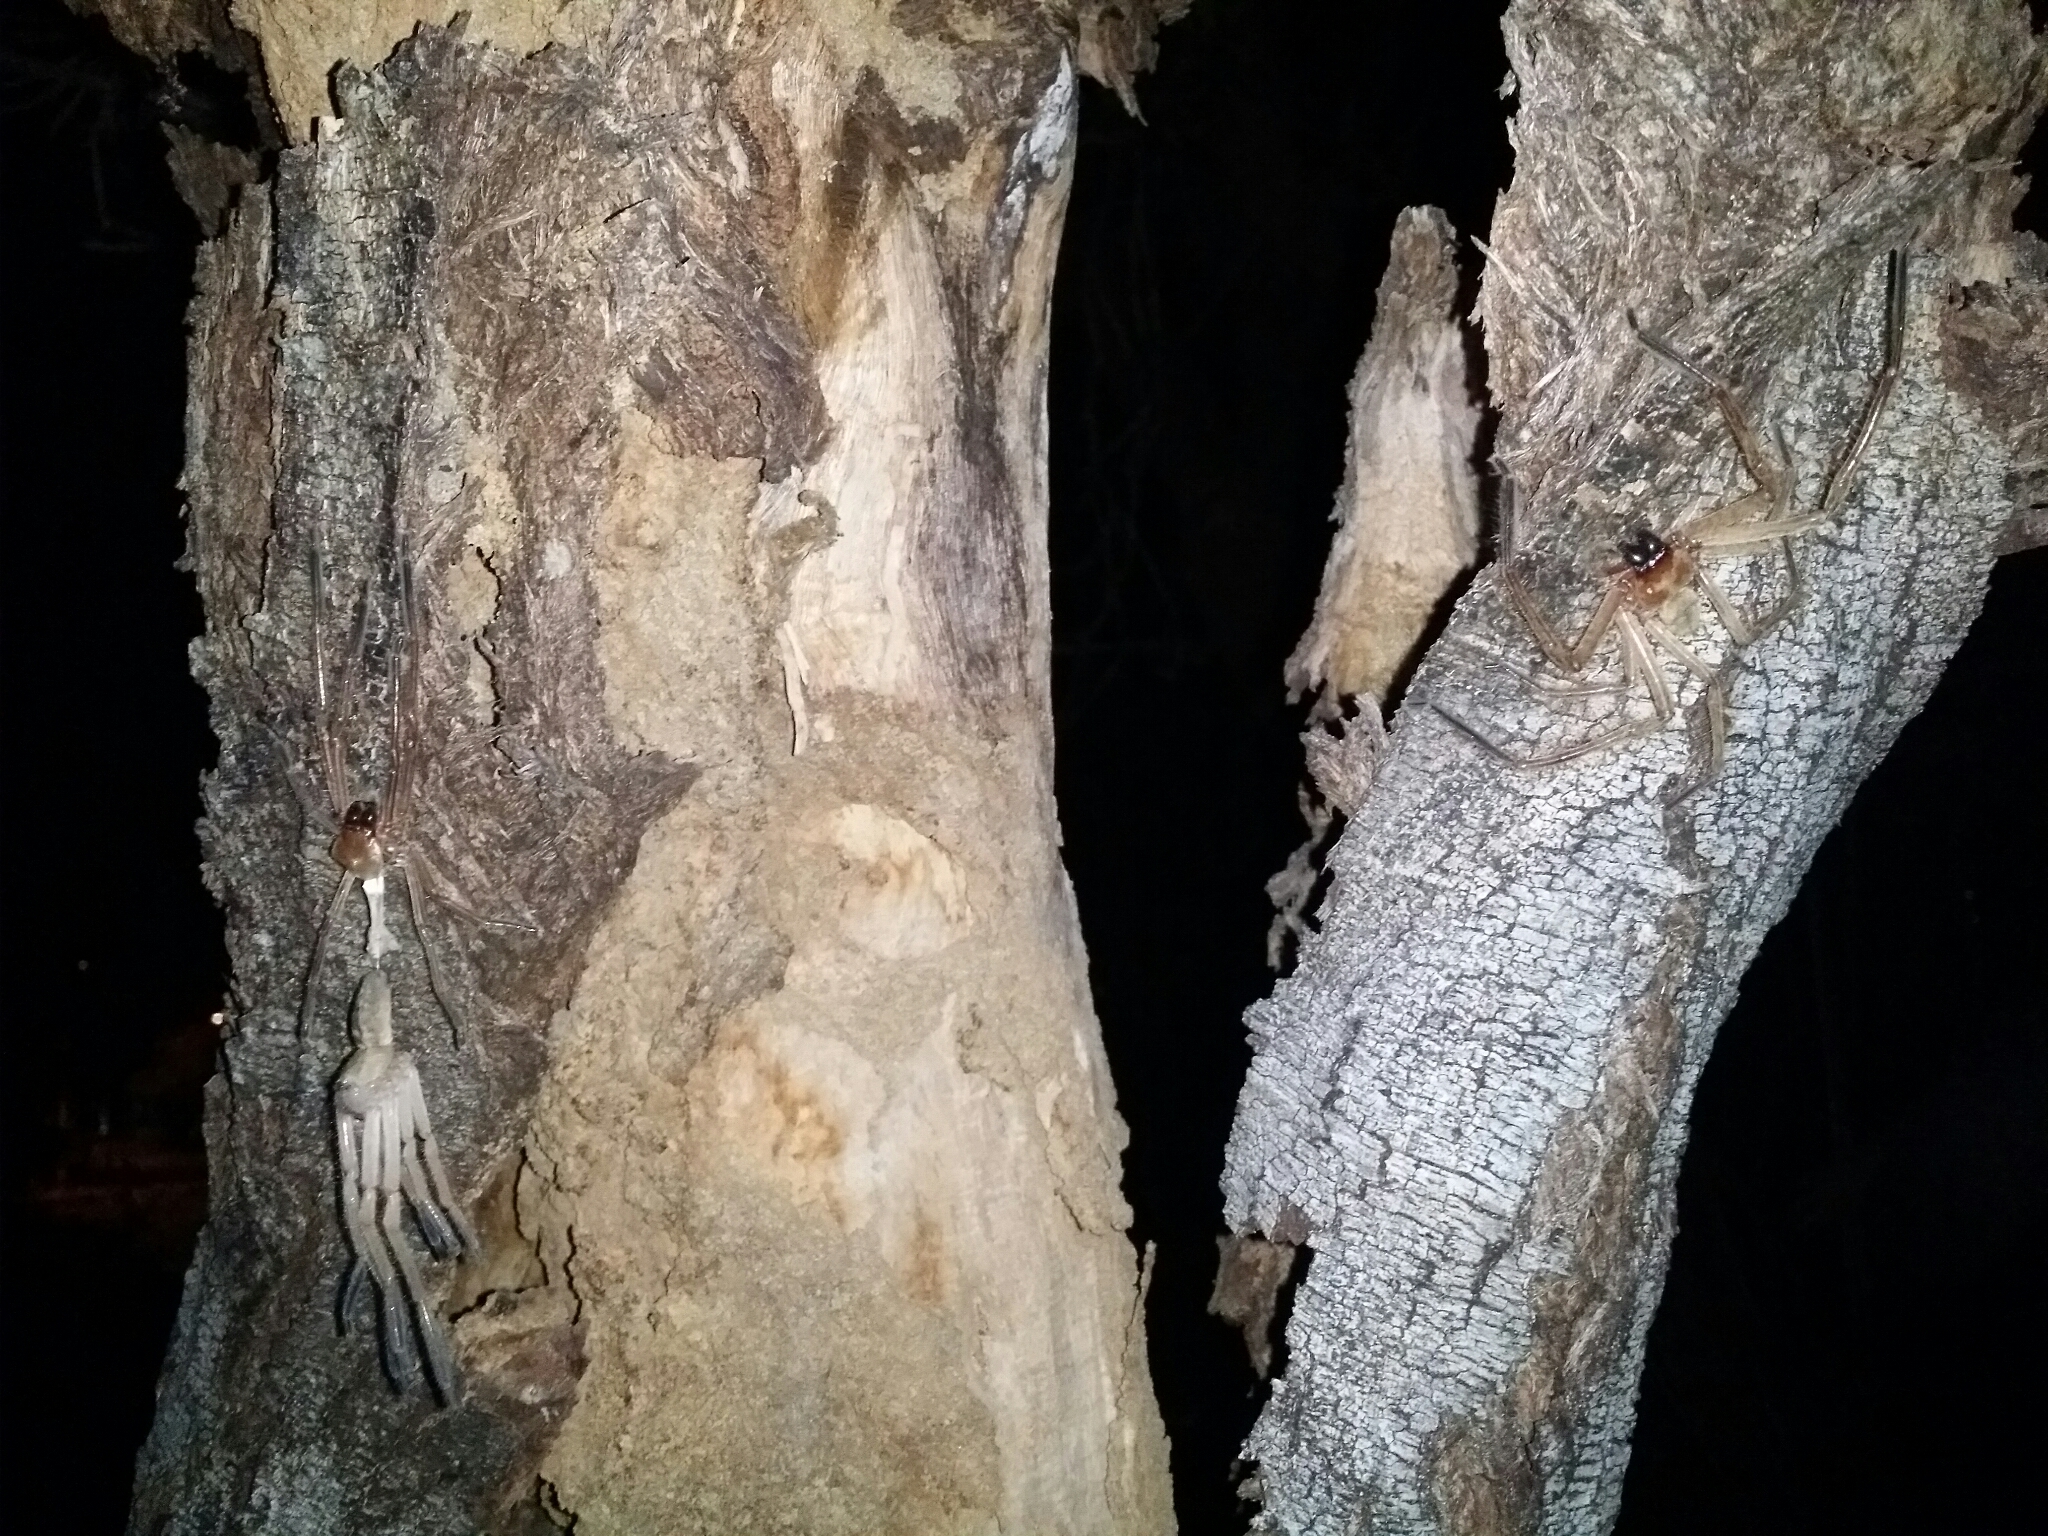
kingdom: Animalia
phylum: Arthropoda
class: Arachnida
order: Araneae
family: Sparassidae
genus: Delena
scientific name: Delena cancerides
